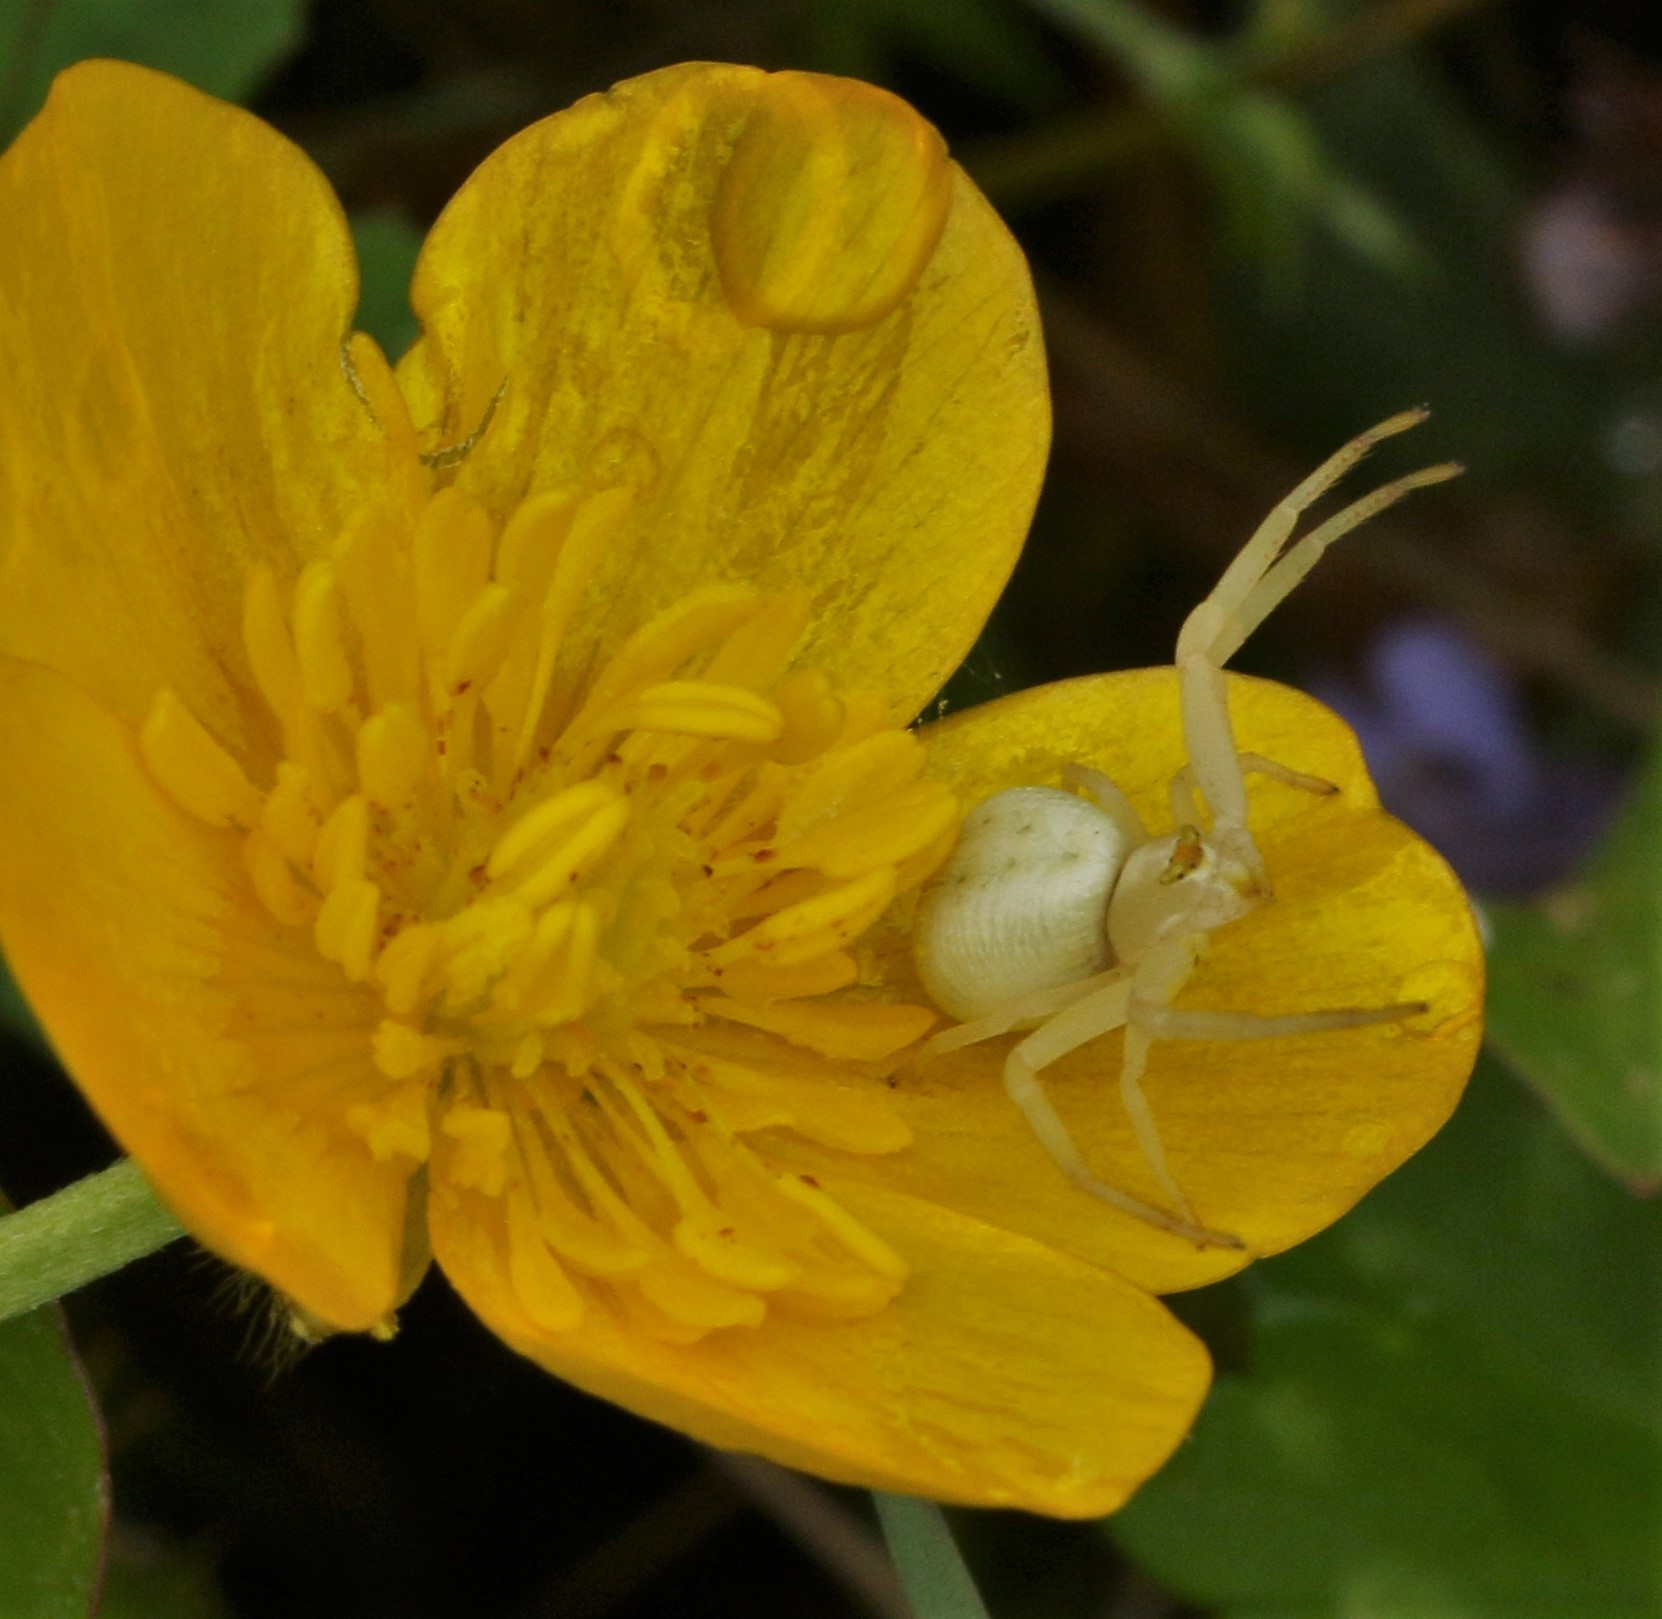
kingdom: Animalia
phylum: Arthropoda
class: Arachnida
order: Araneae
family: Thomisidae
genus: Misumena
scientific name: Misumena vatia
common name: Goldenrod crab spider
